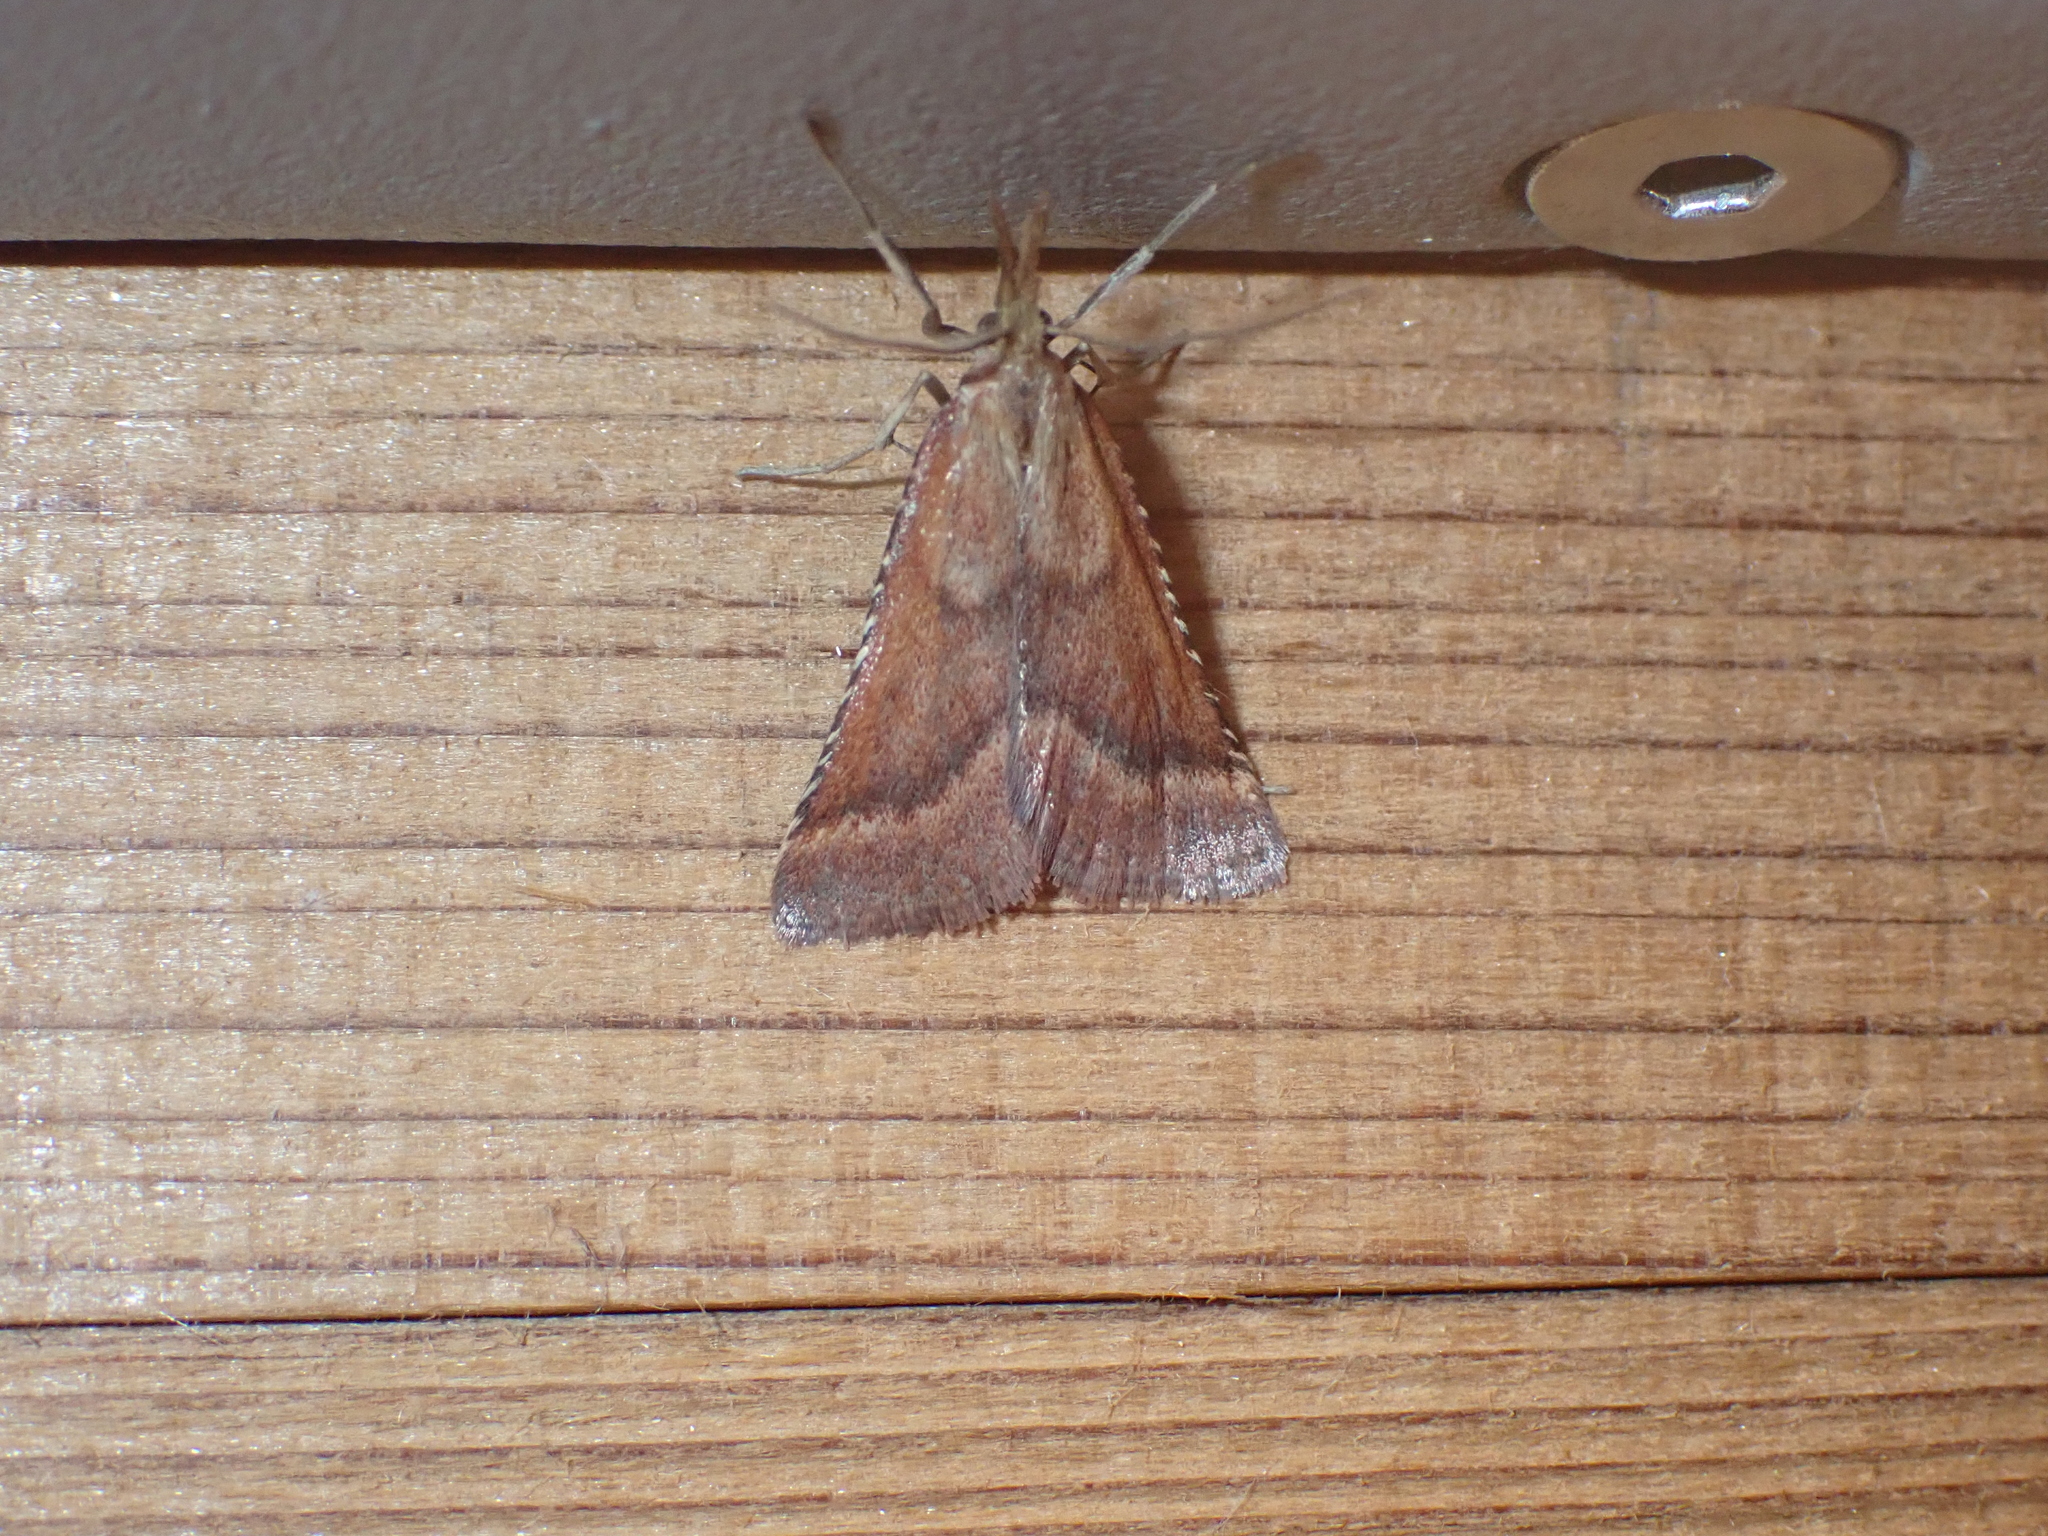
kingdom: Animalia
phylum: Arthropoda
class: Insecta
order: Lepidoptera
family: Pyralidae
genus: Synaphe
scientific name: Synaphe punctalis
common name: Long-legged tabby
